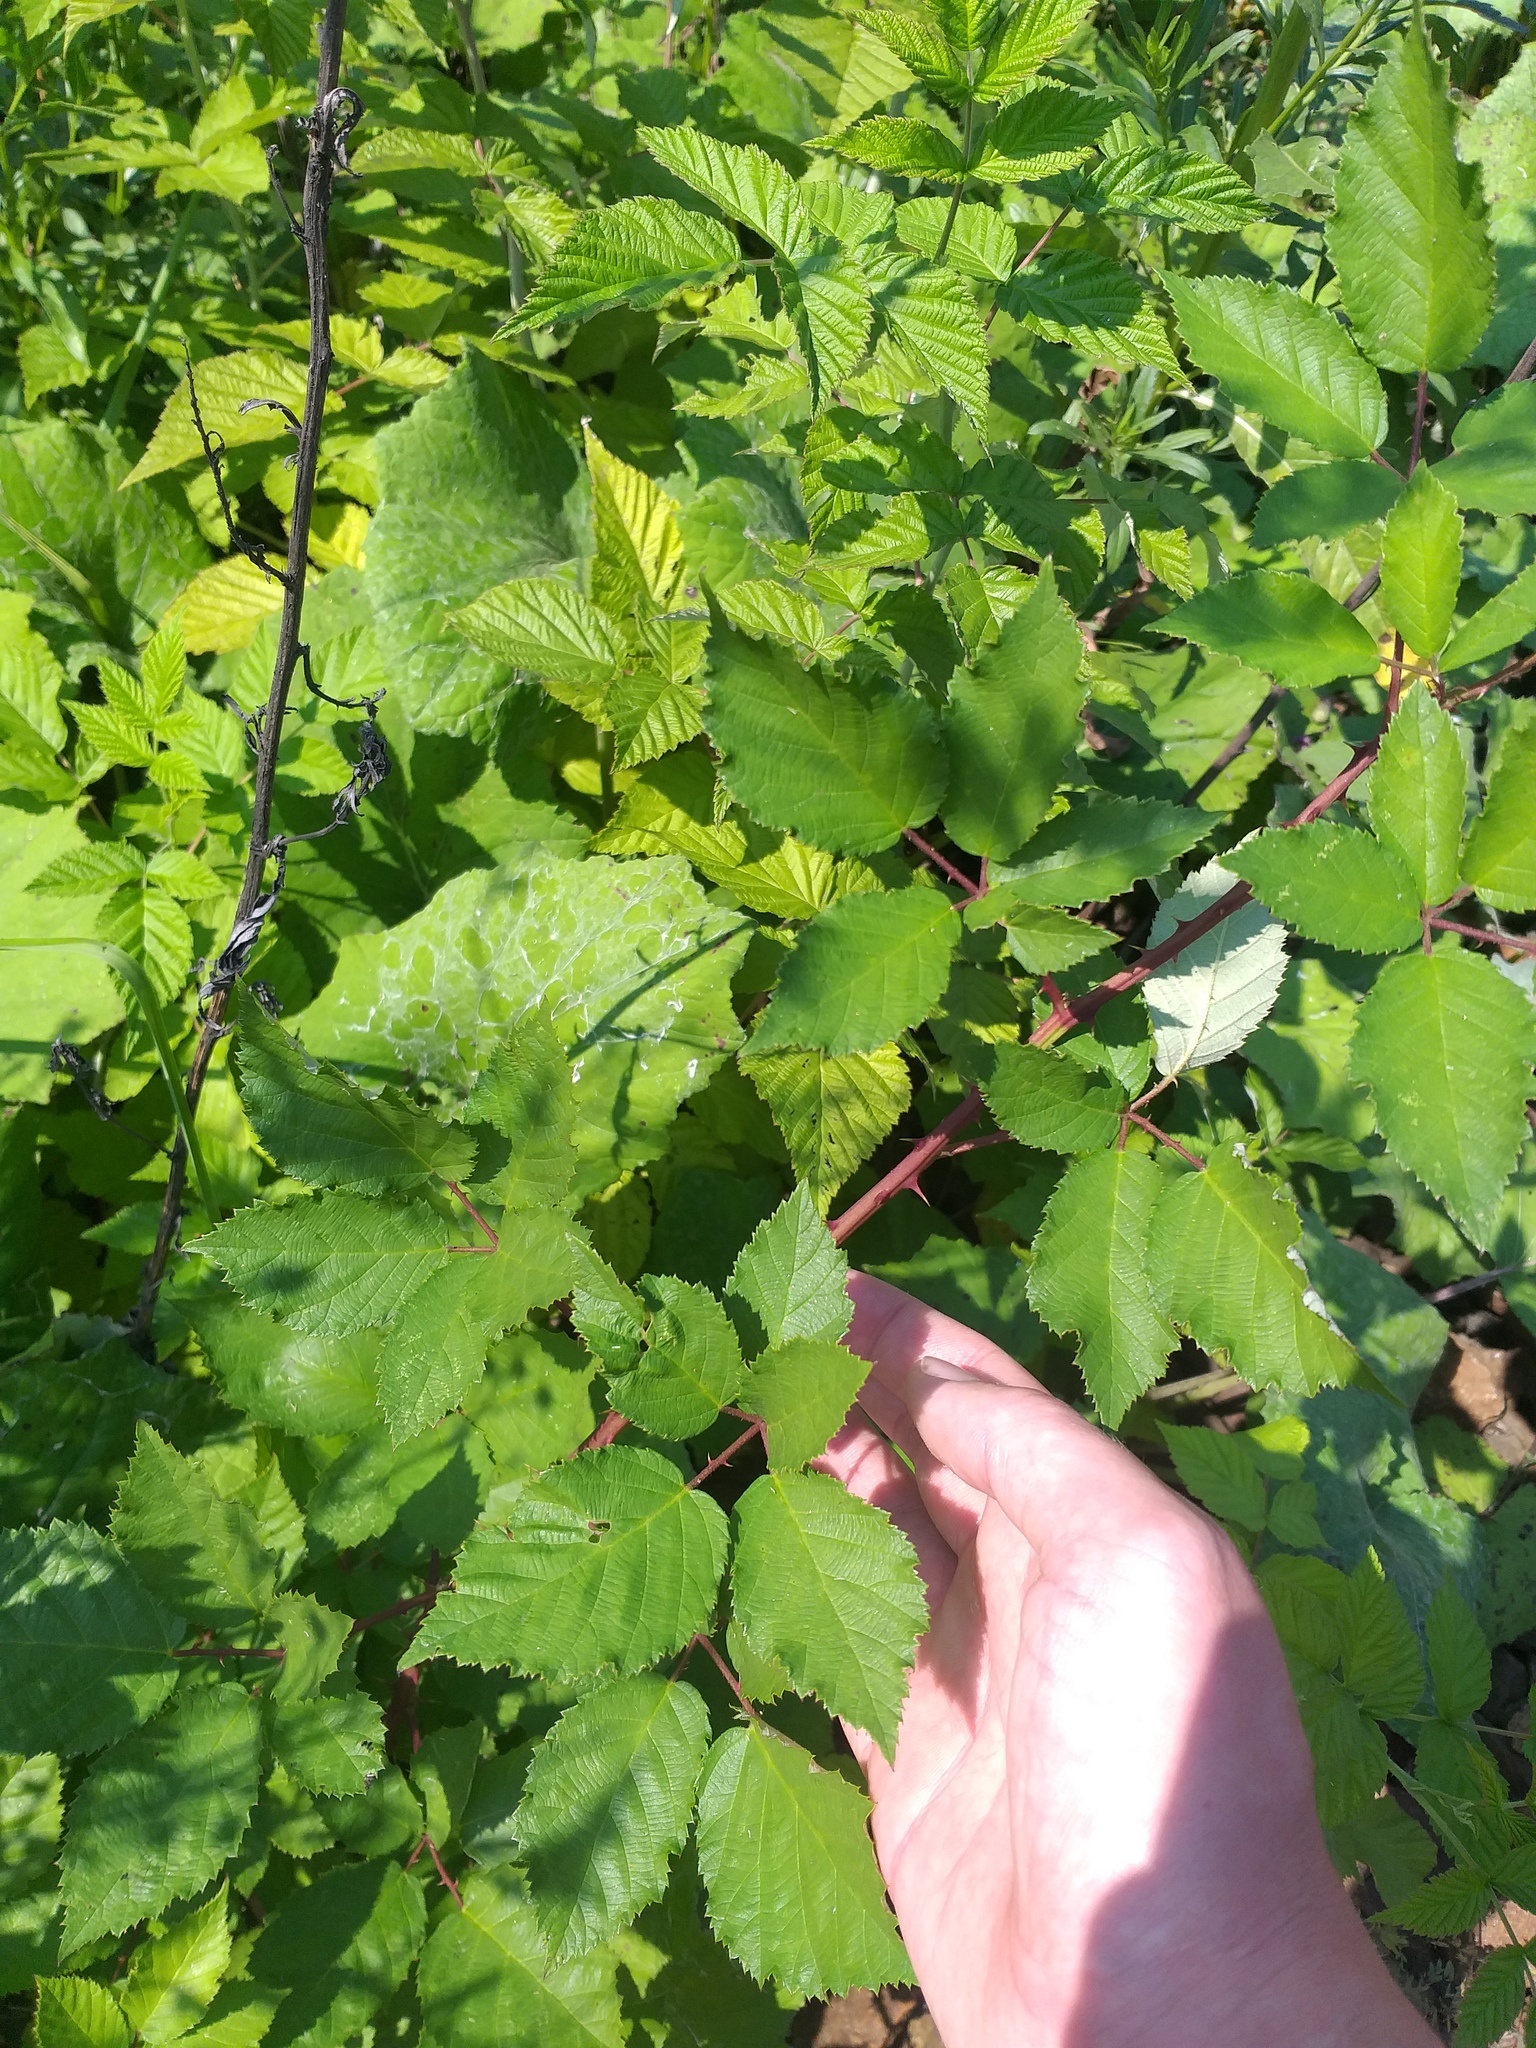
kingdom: Plantae
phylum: Tracheophyta
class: Magnoliopsida
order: Rosales
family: Rosaceae
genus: Rubus
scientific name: Rubus procerus
